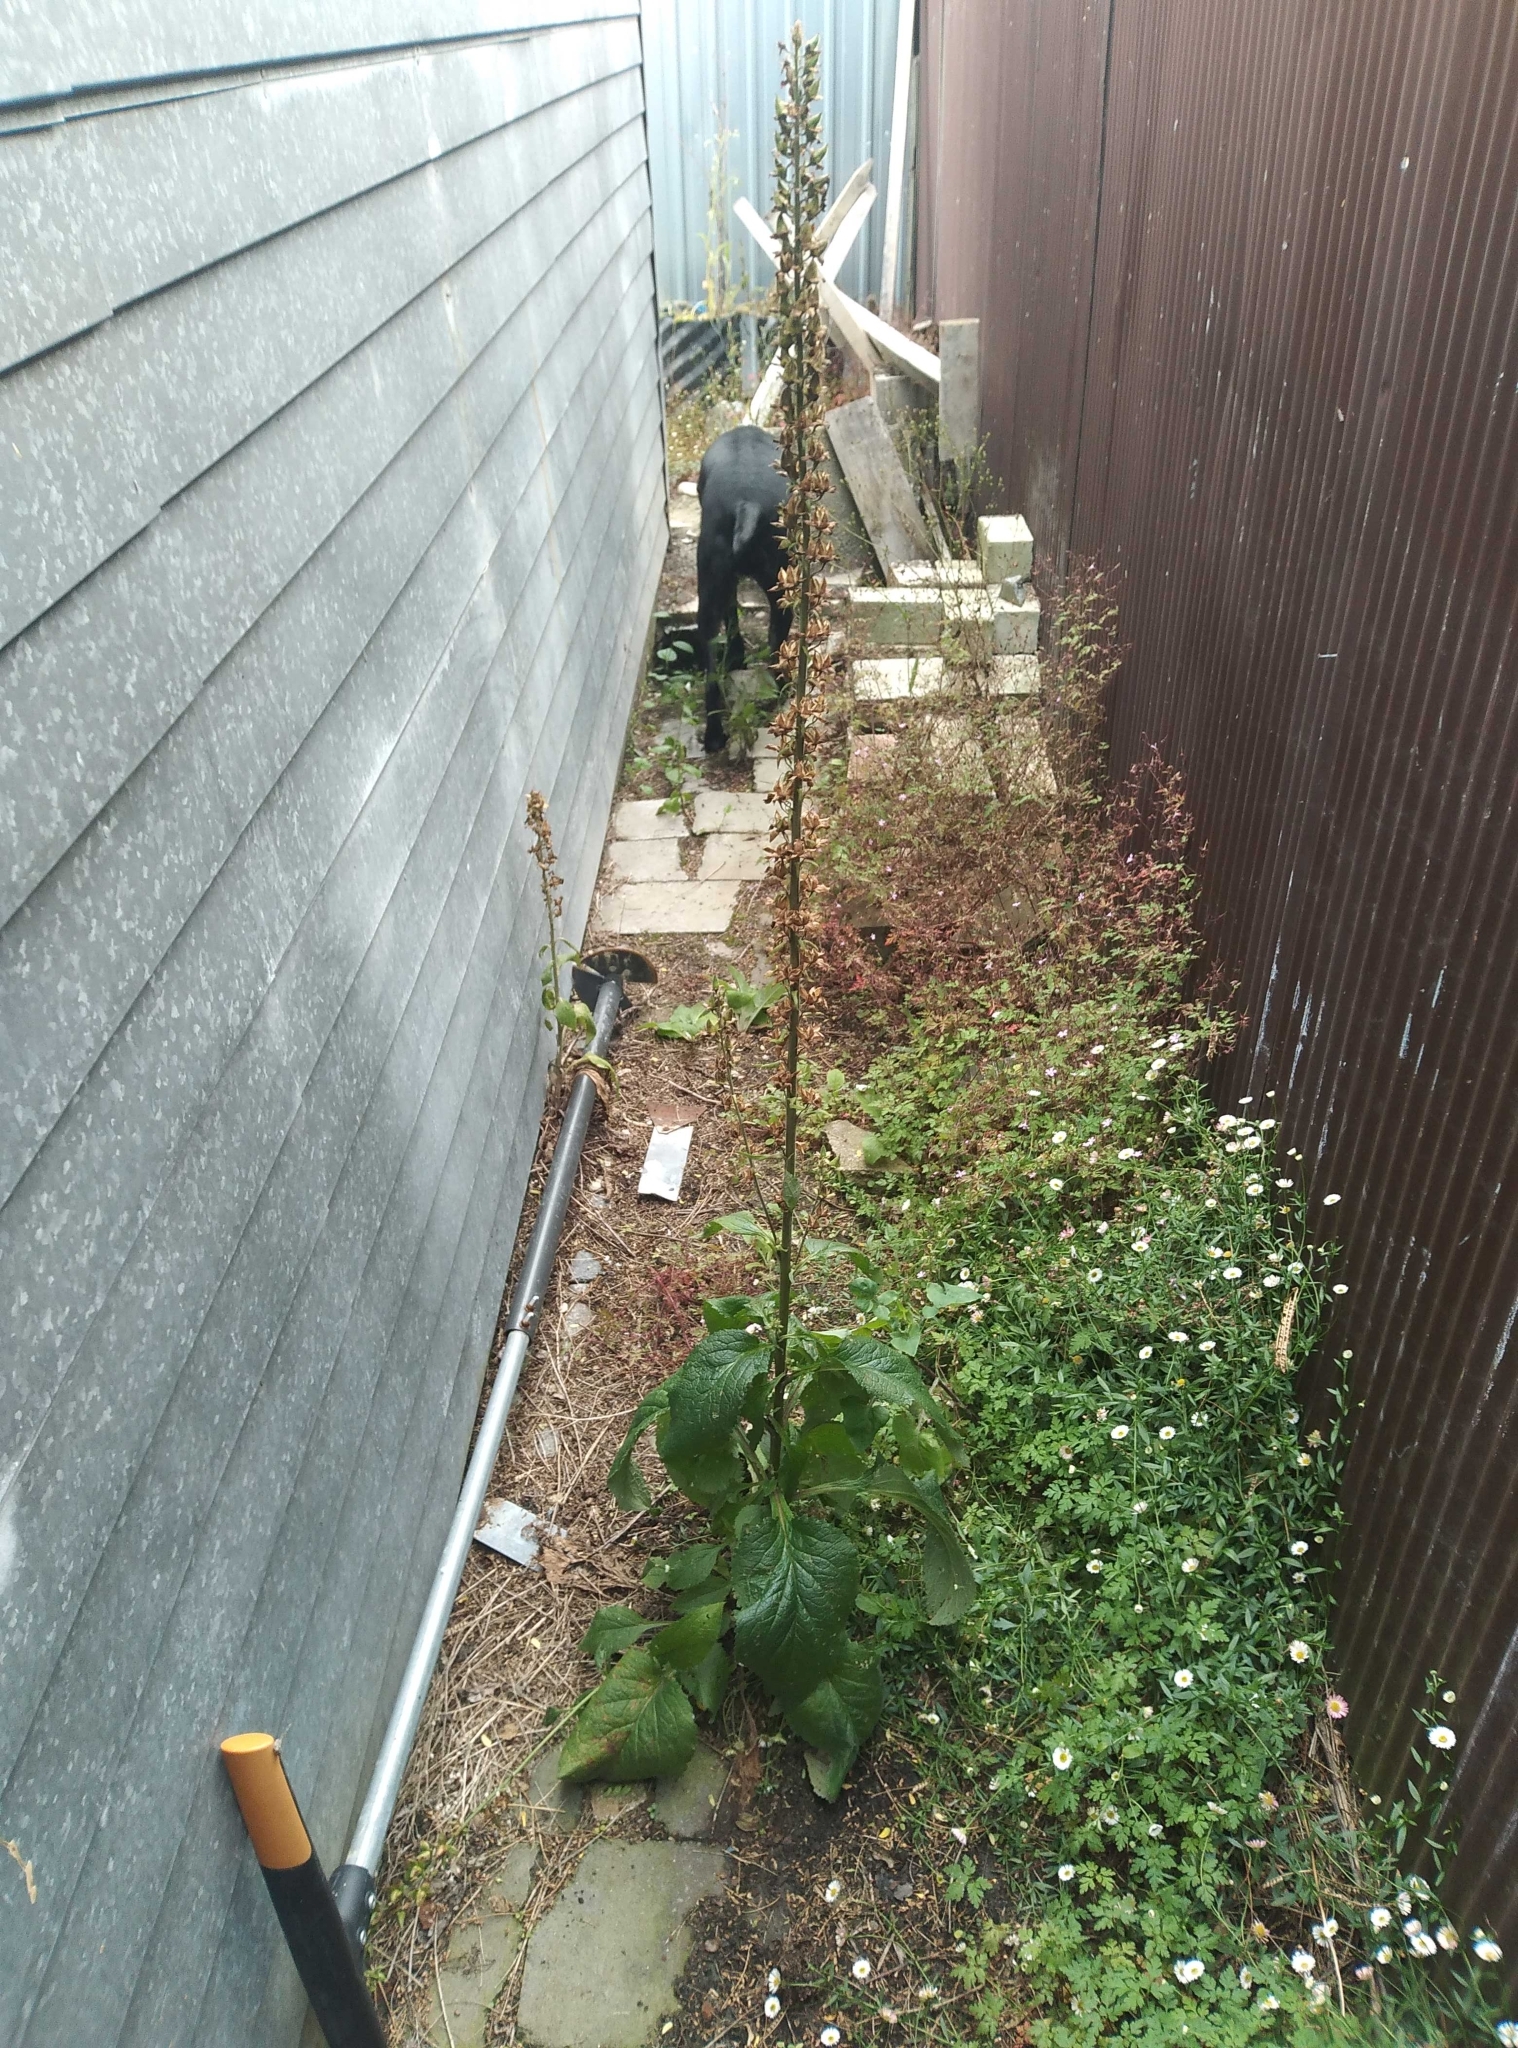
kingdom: Plantae
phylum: Tracheophyta
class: Magnoliopsida
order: Lamiales
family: Plantaginaceae
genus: Digitalis
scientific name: Digitalis purpurea
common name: Foxglove
